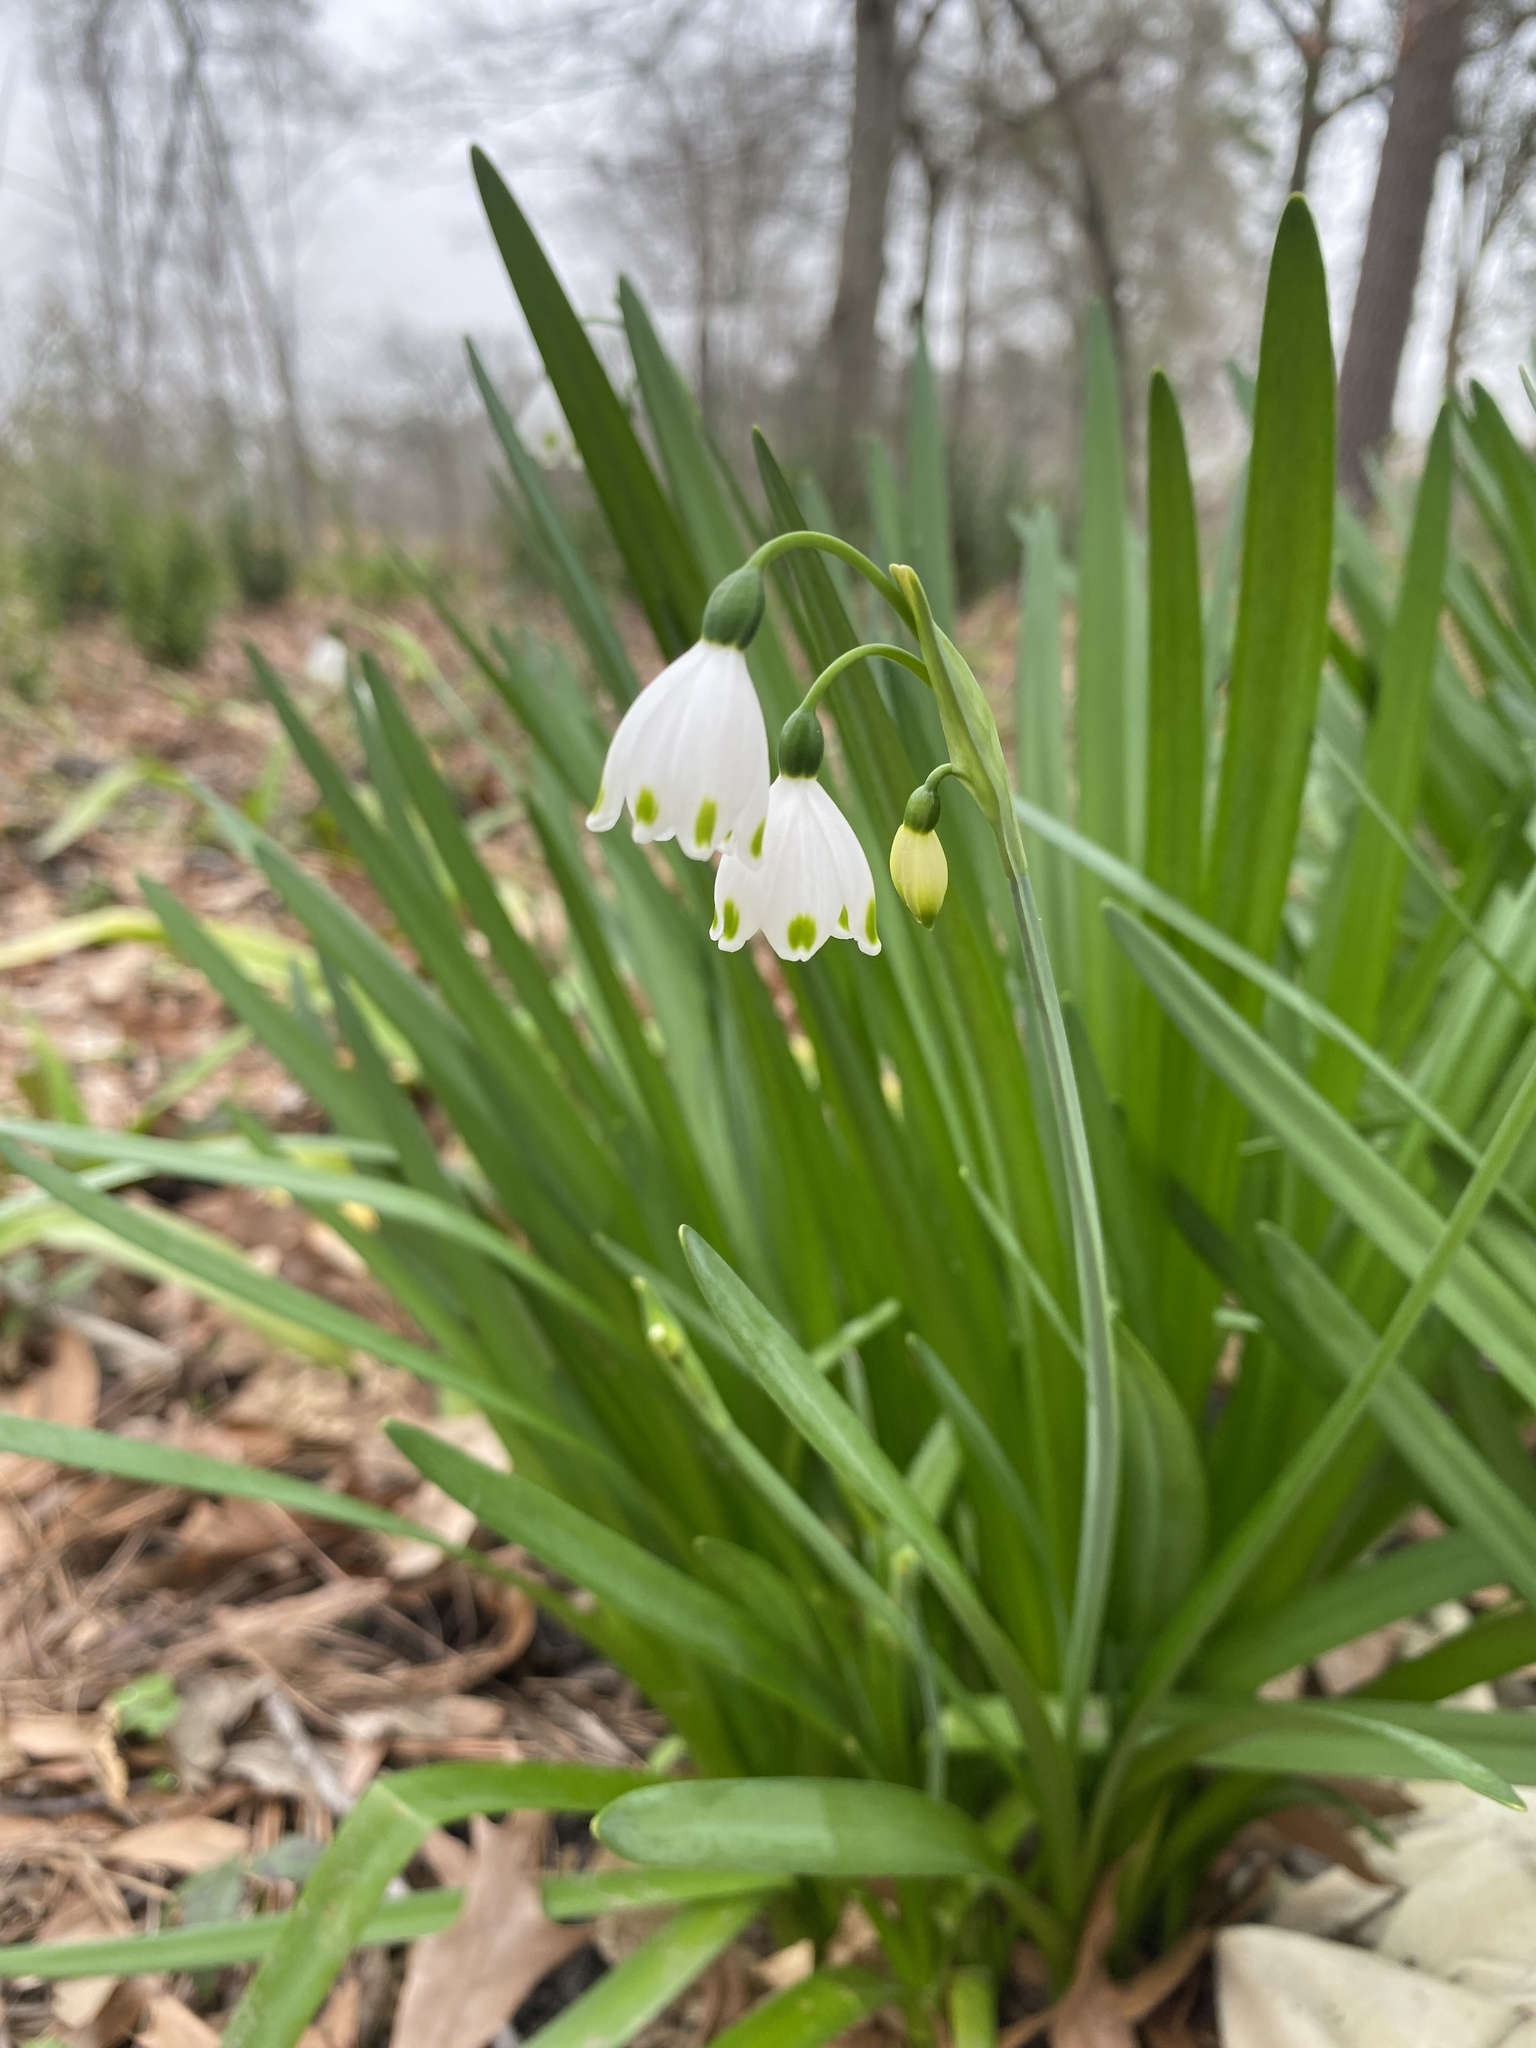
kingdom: Plantae
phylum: Tracheophyta
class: Liliopsida
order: Asparagales
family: Amaryllidaceae
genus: Leucojum
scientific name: Leucojum aestivum
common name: Summer snowflake
